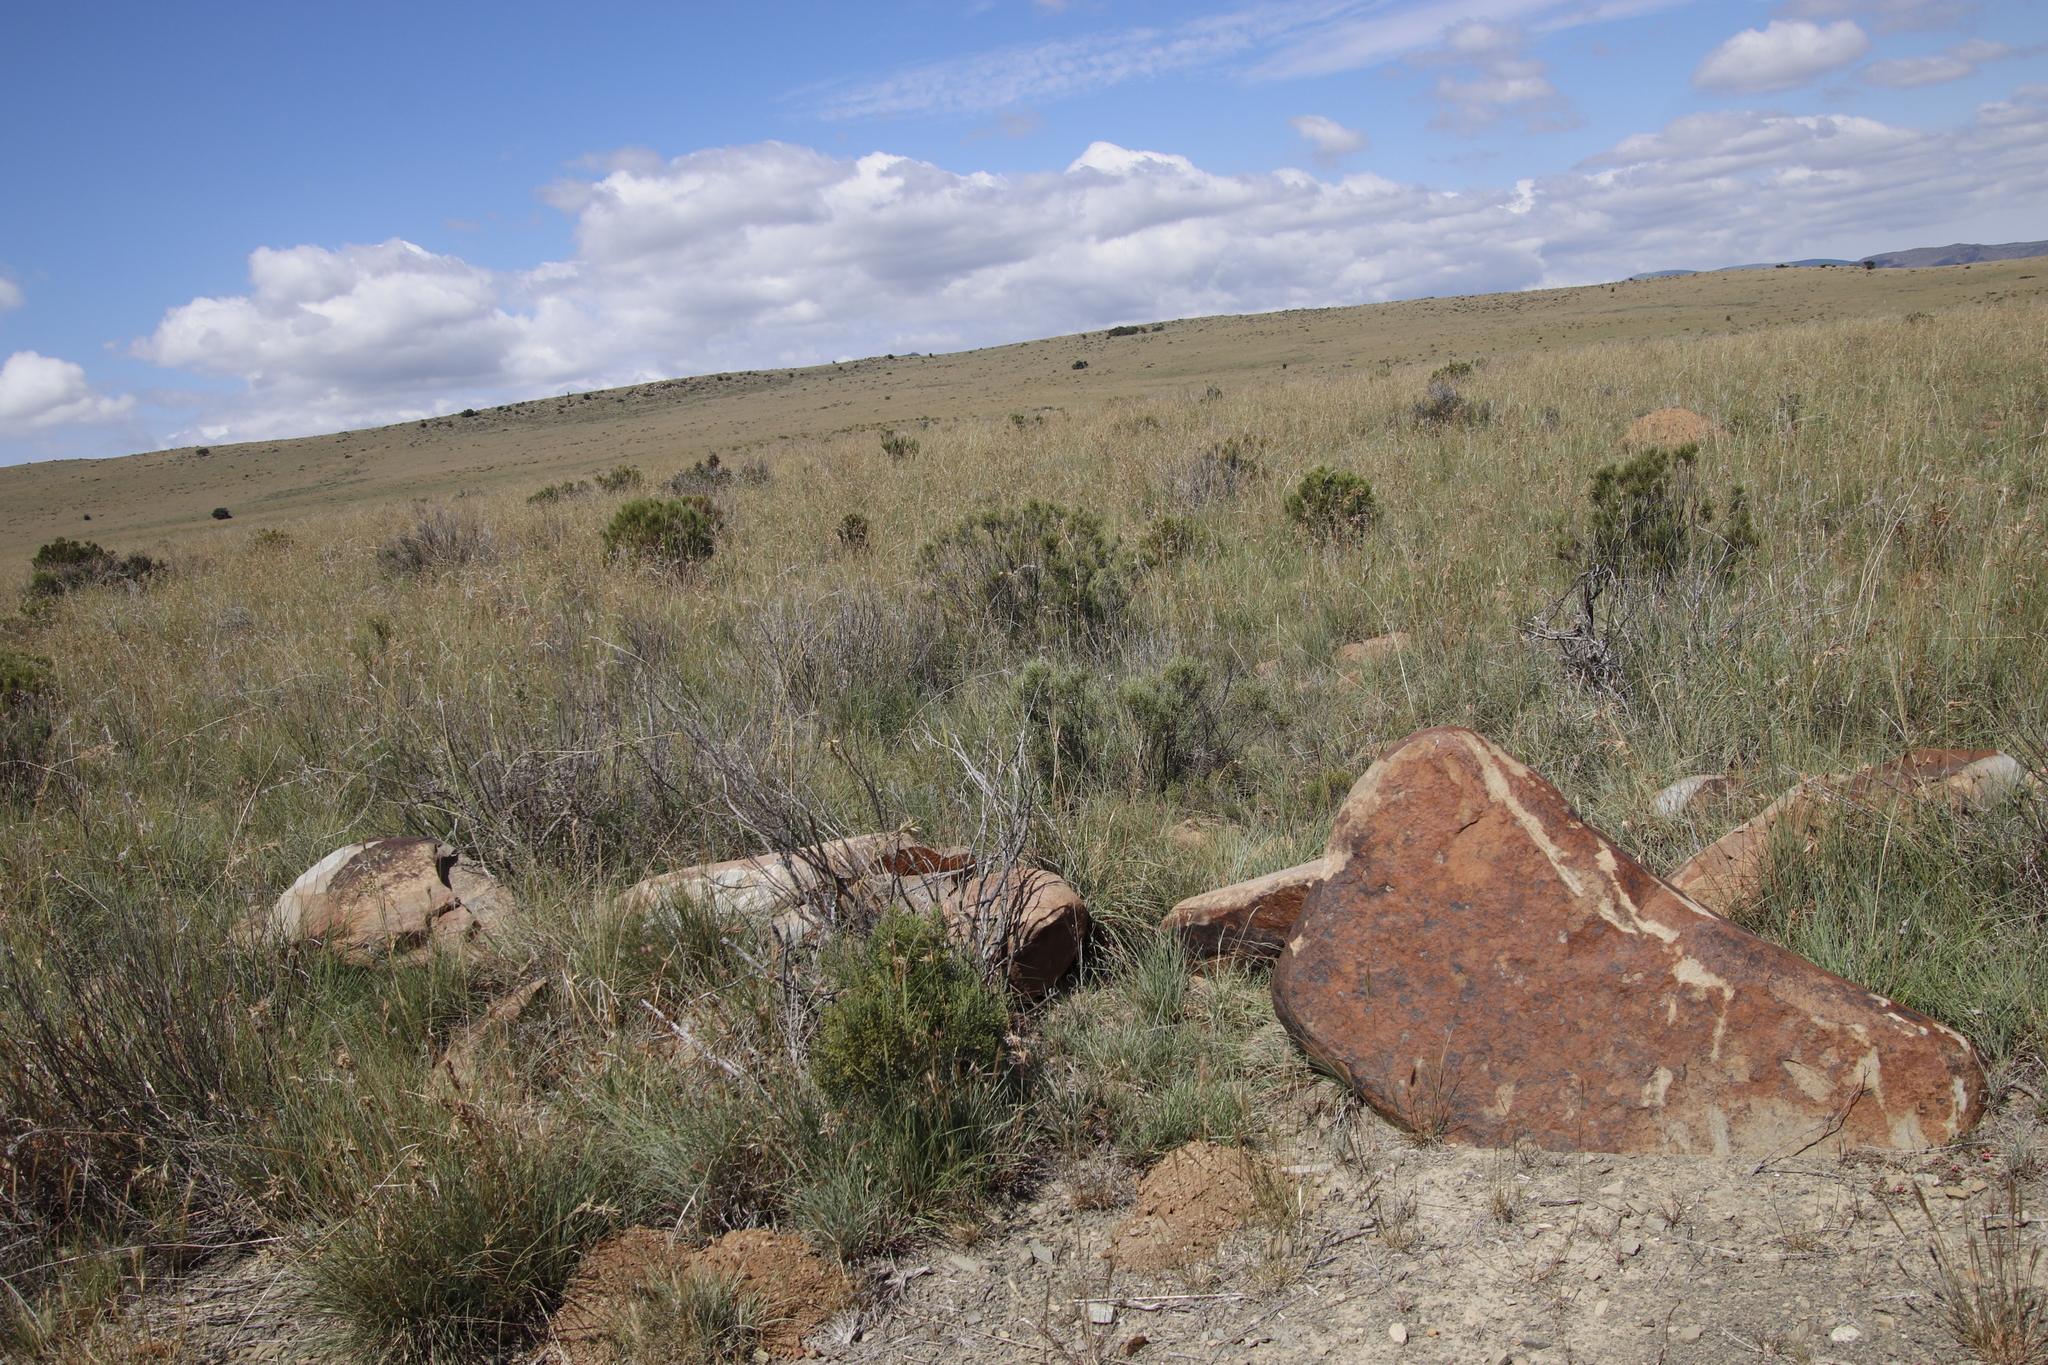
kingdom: Plantae
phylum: Tracheophyta
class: Magnoliopsida
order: Asterales
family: Asteraceae
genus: Dicerothamnus
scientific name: Dicerothamnus rhinocerotis
